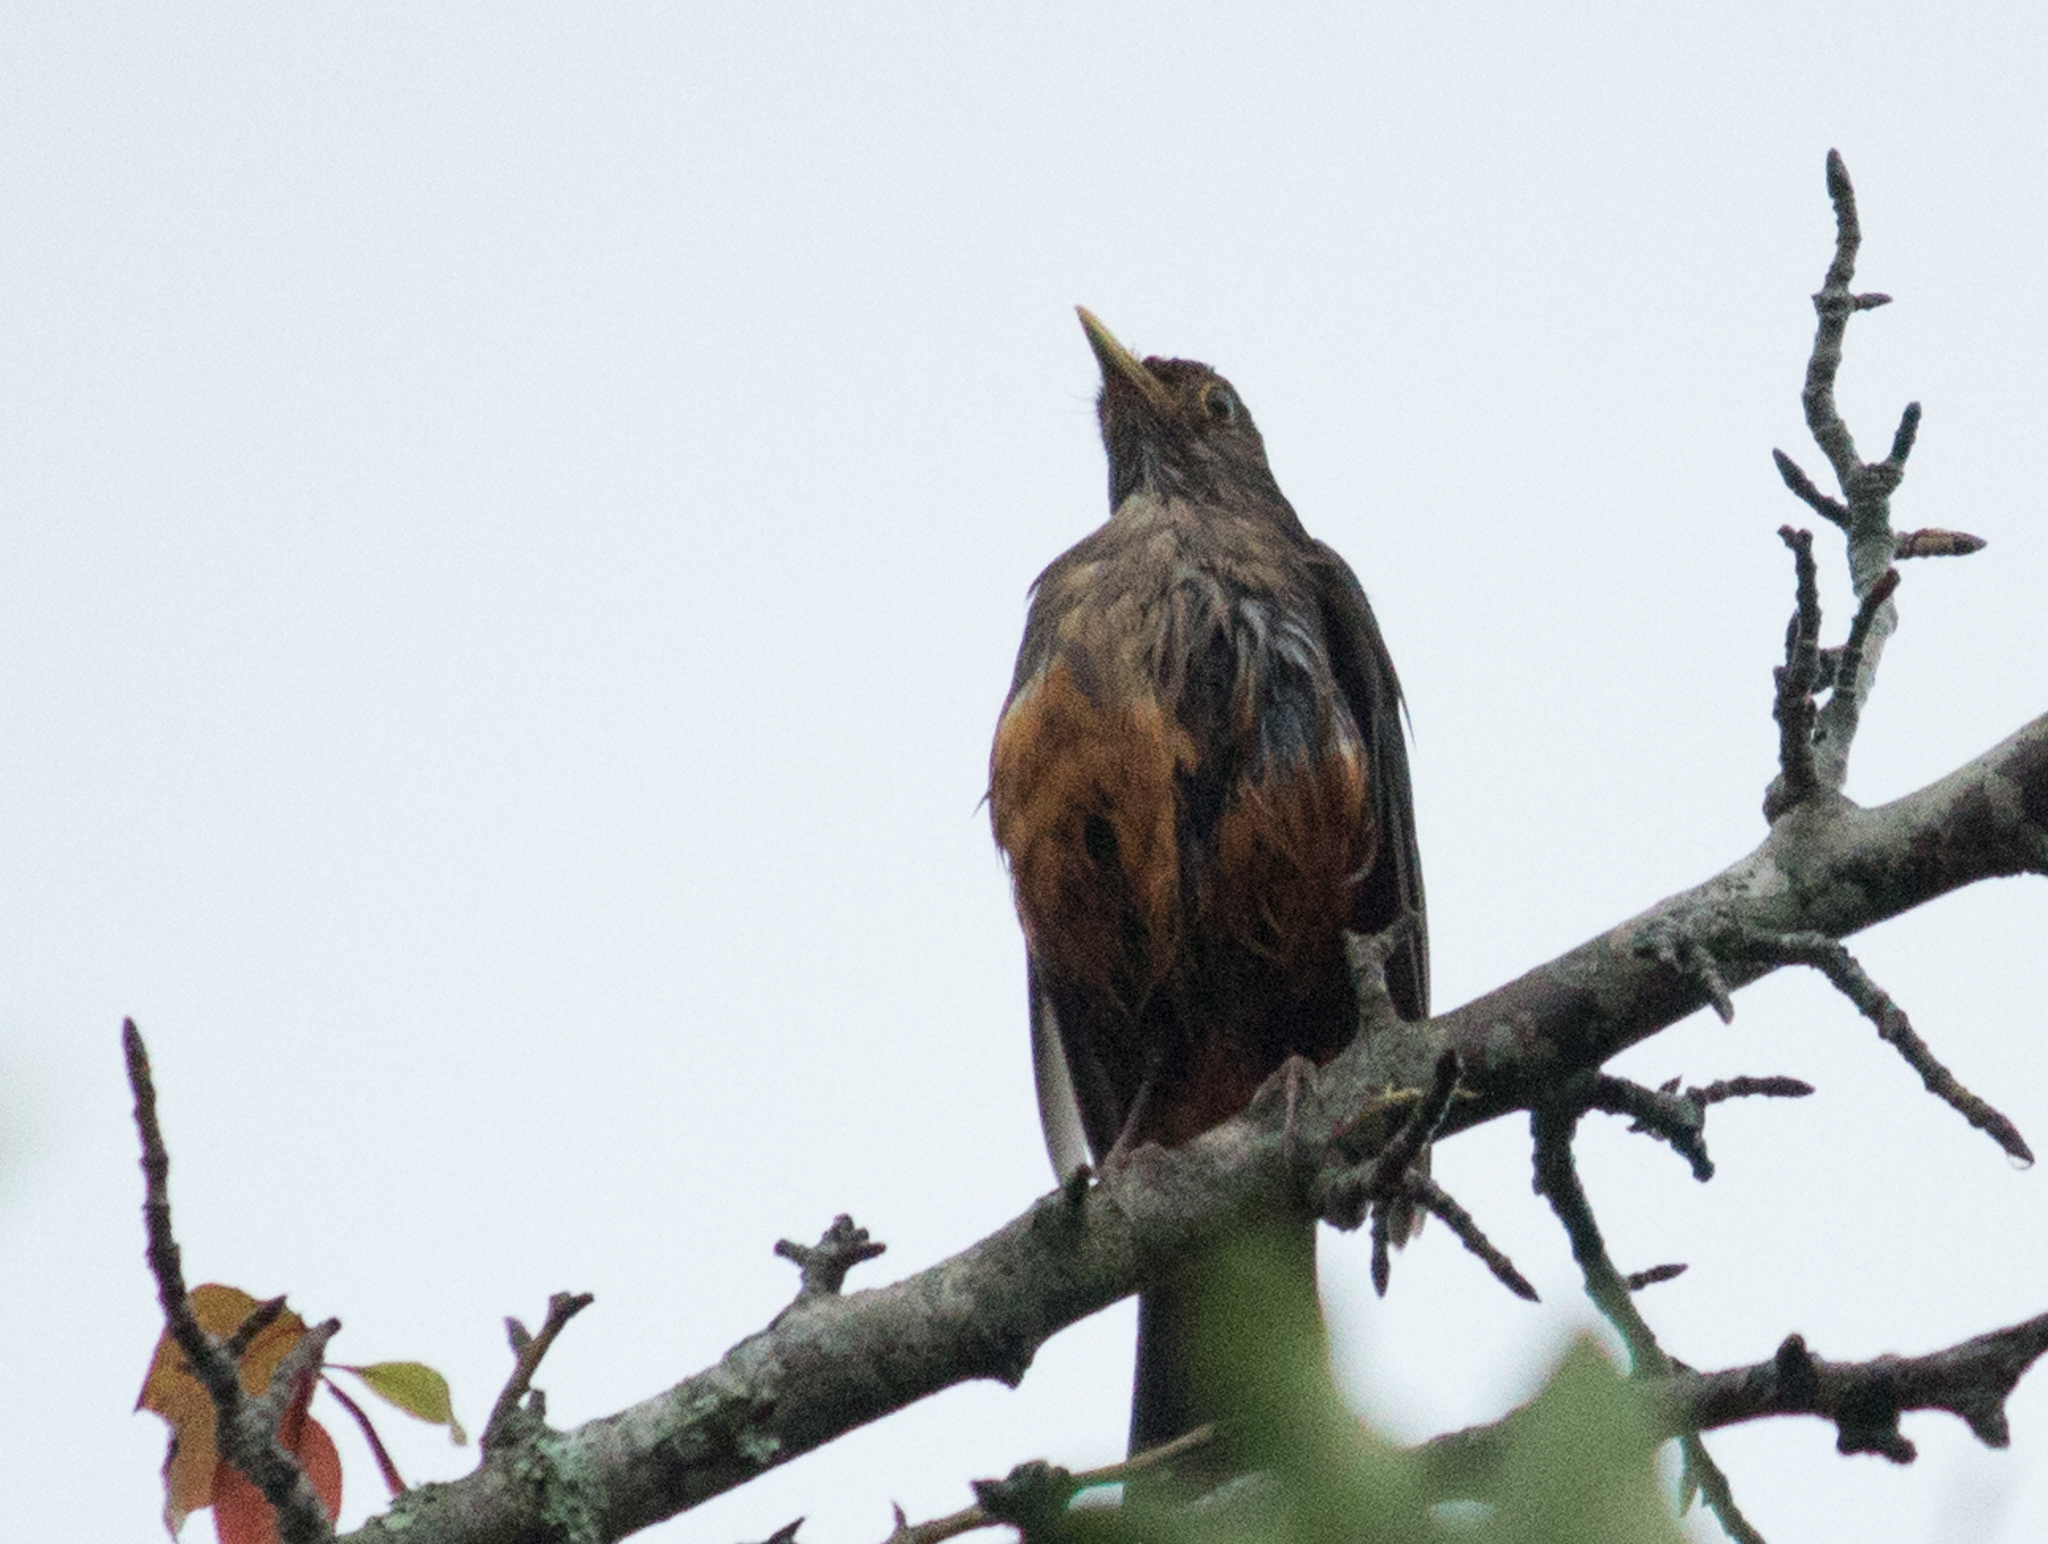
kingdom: Animalia
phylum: Chordata
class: Aves
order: Passeriformes
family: Turdidae
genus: Turdus
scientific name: Turdus rufiventris
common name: Rufous-bellied thrush
